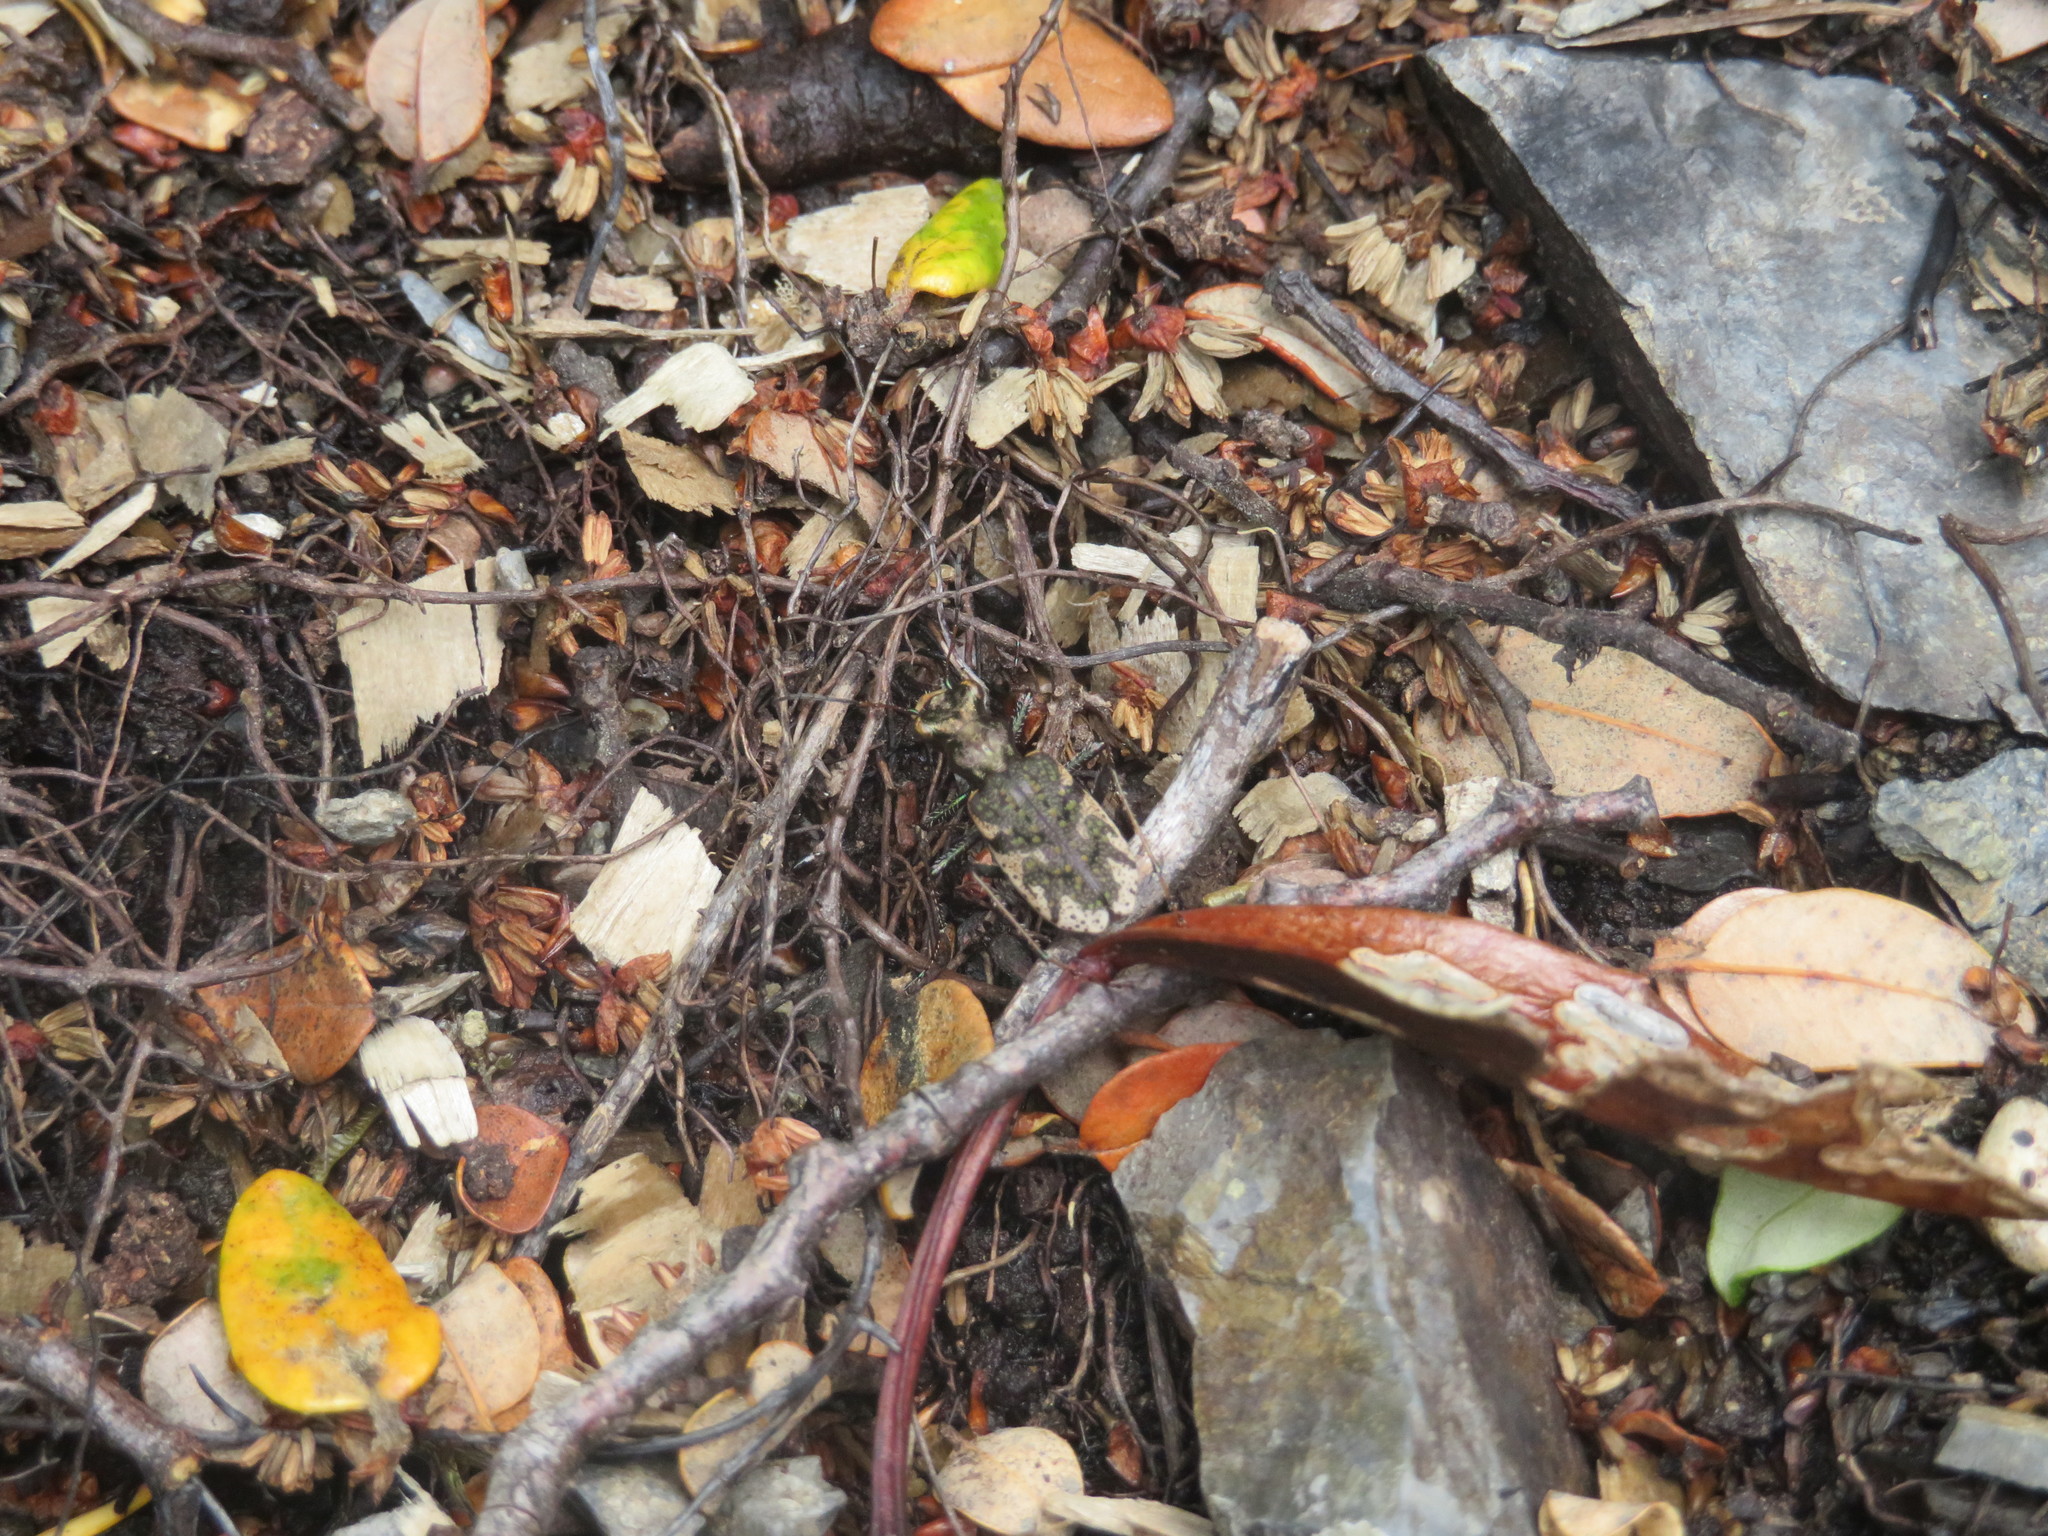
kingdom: Animalia
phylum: Arthropoda
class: Insecta
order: Coleoptera
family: Carabidae
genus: Neocicindela
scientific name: Neocicindela garnerae
